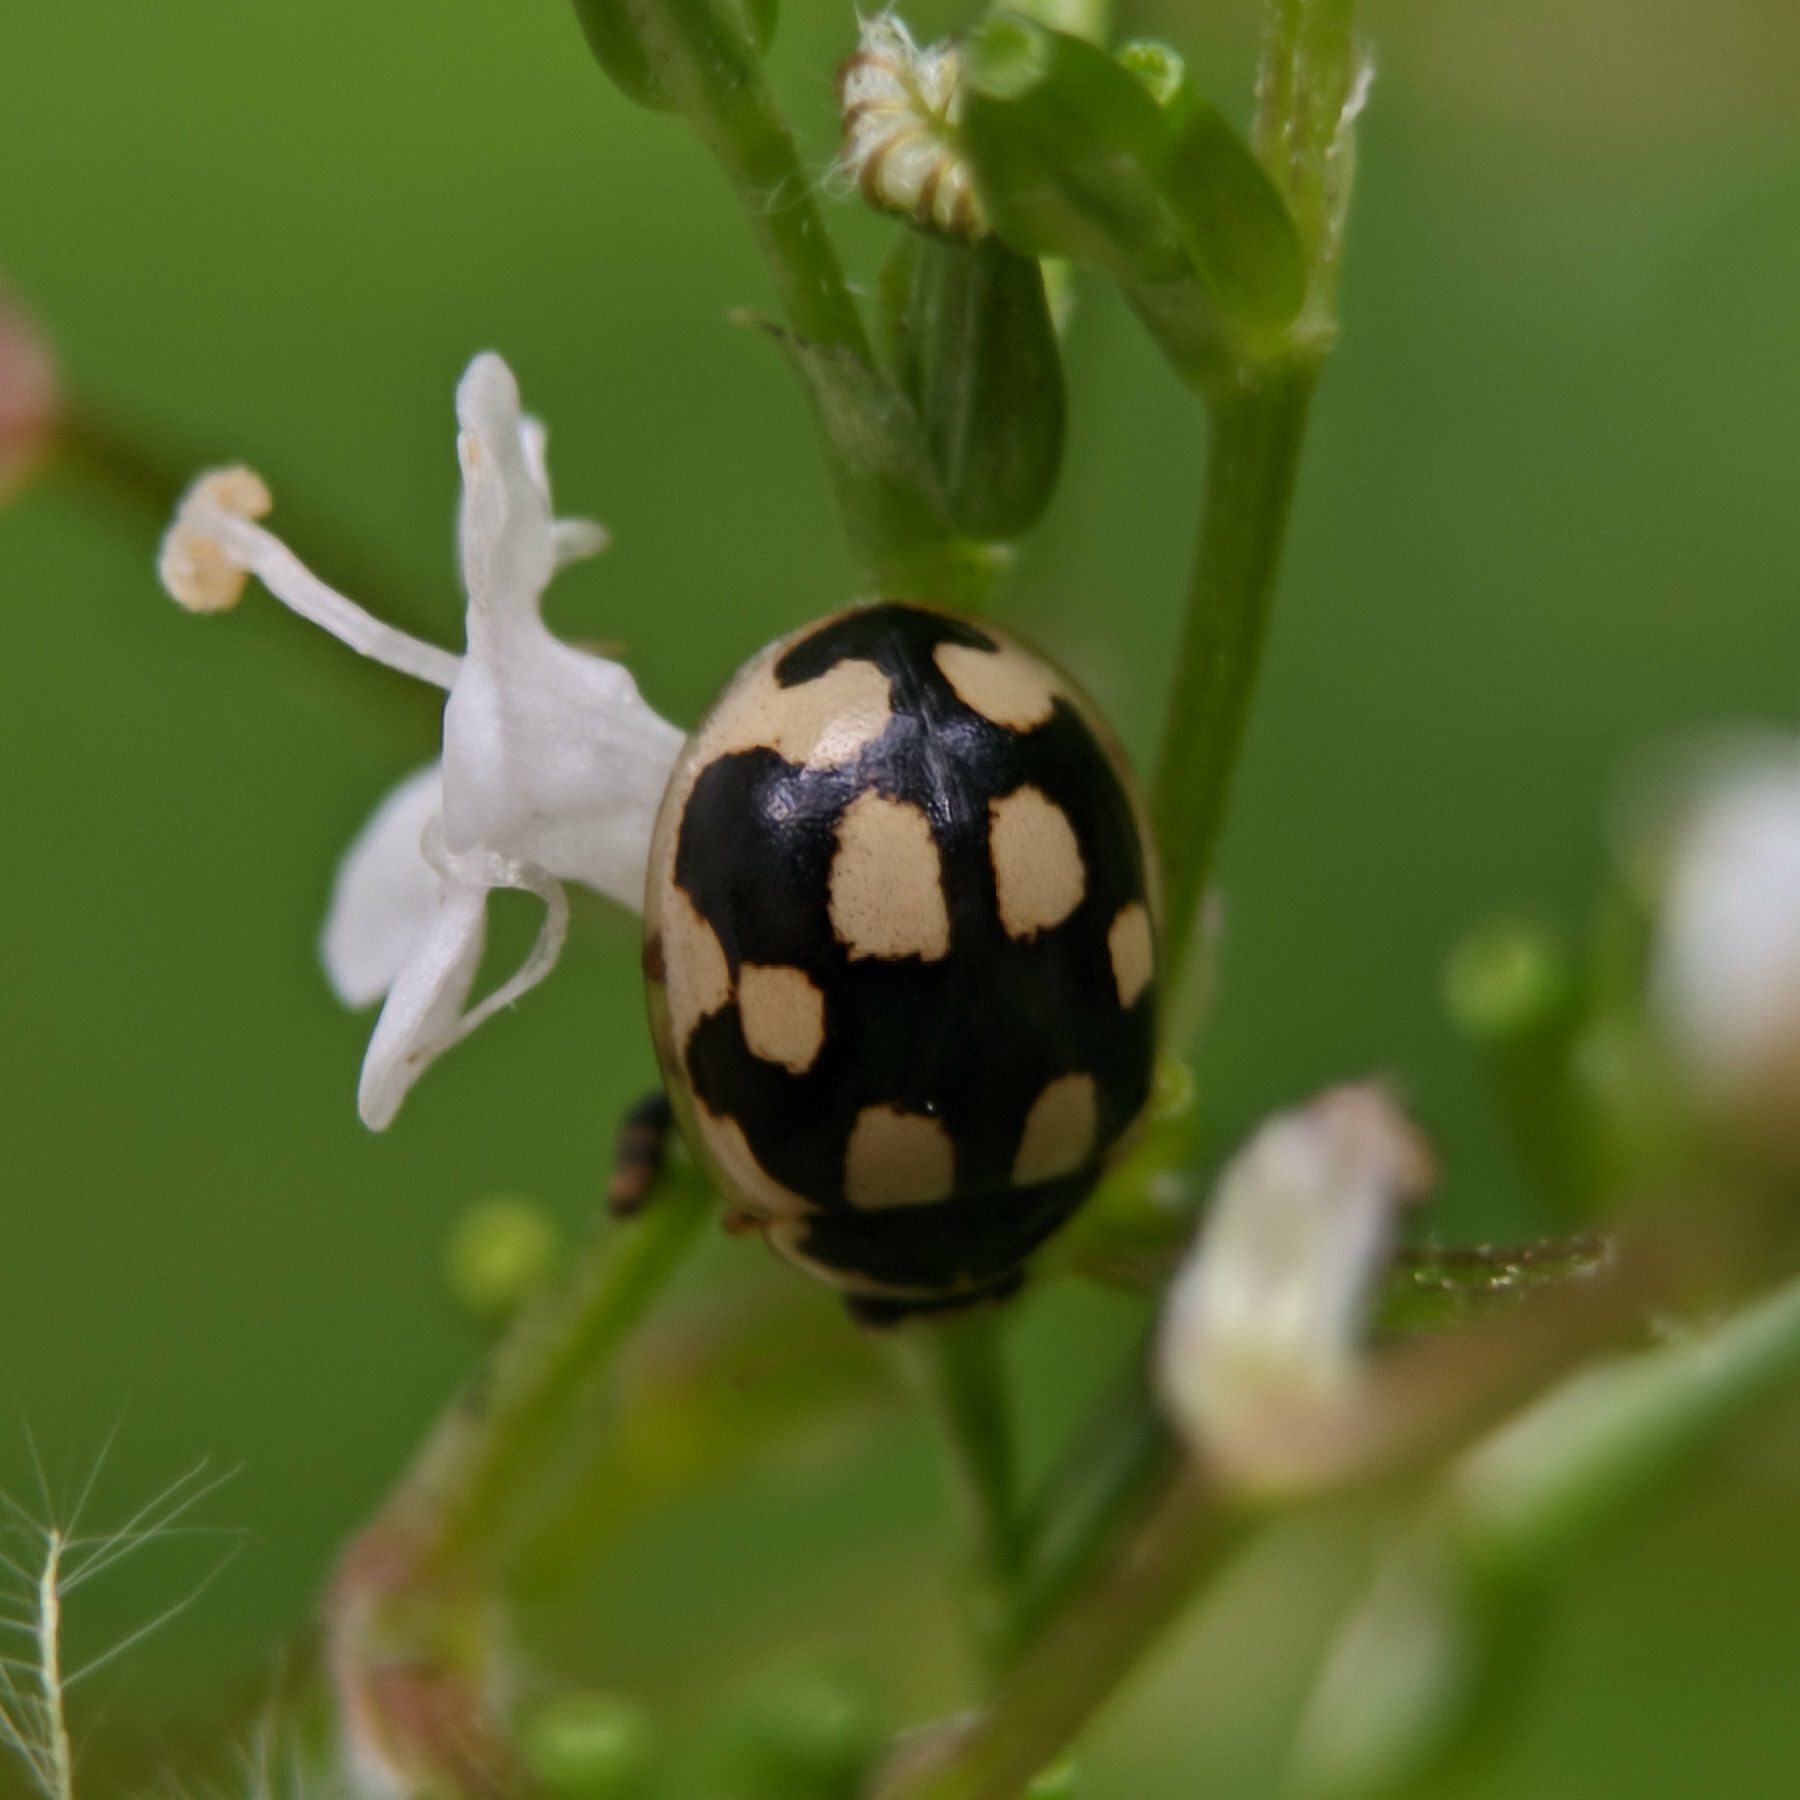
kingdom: Animalia
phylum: Arthropoda
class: Insecta
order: Coleoptera
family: Coccinellidae
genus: Propylaea
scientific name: Propylaea quatuordecimpunctata
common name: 14-spotted ladybird beetle
